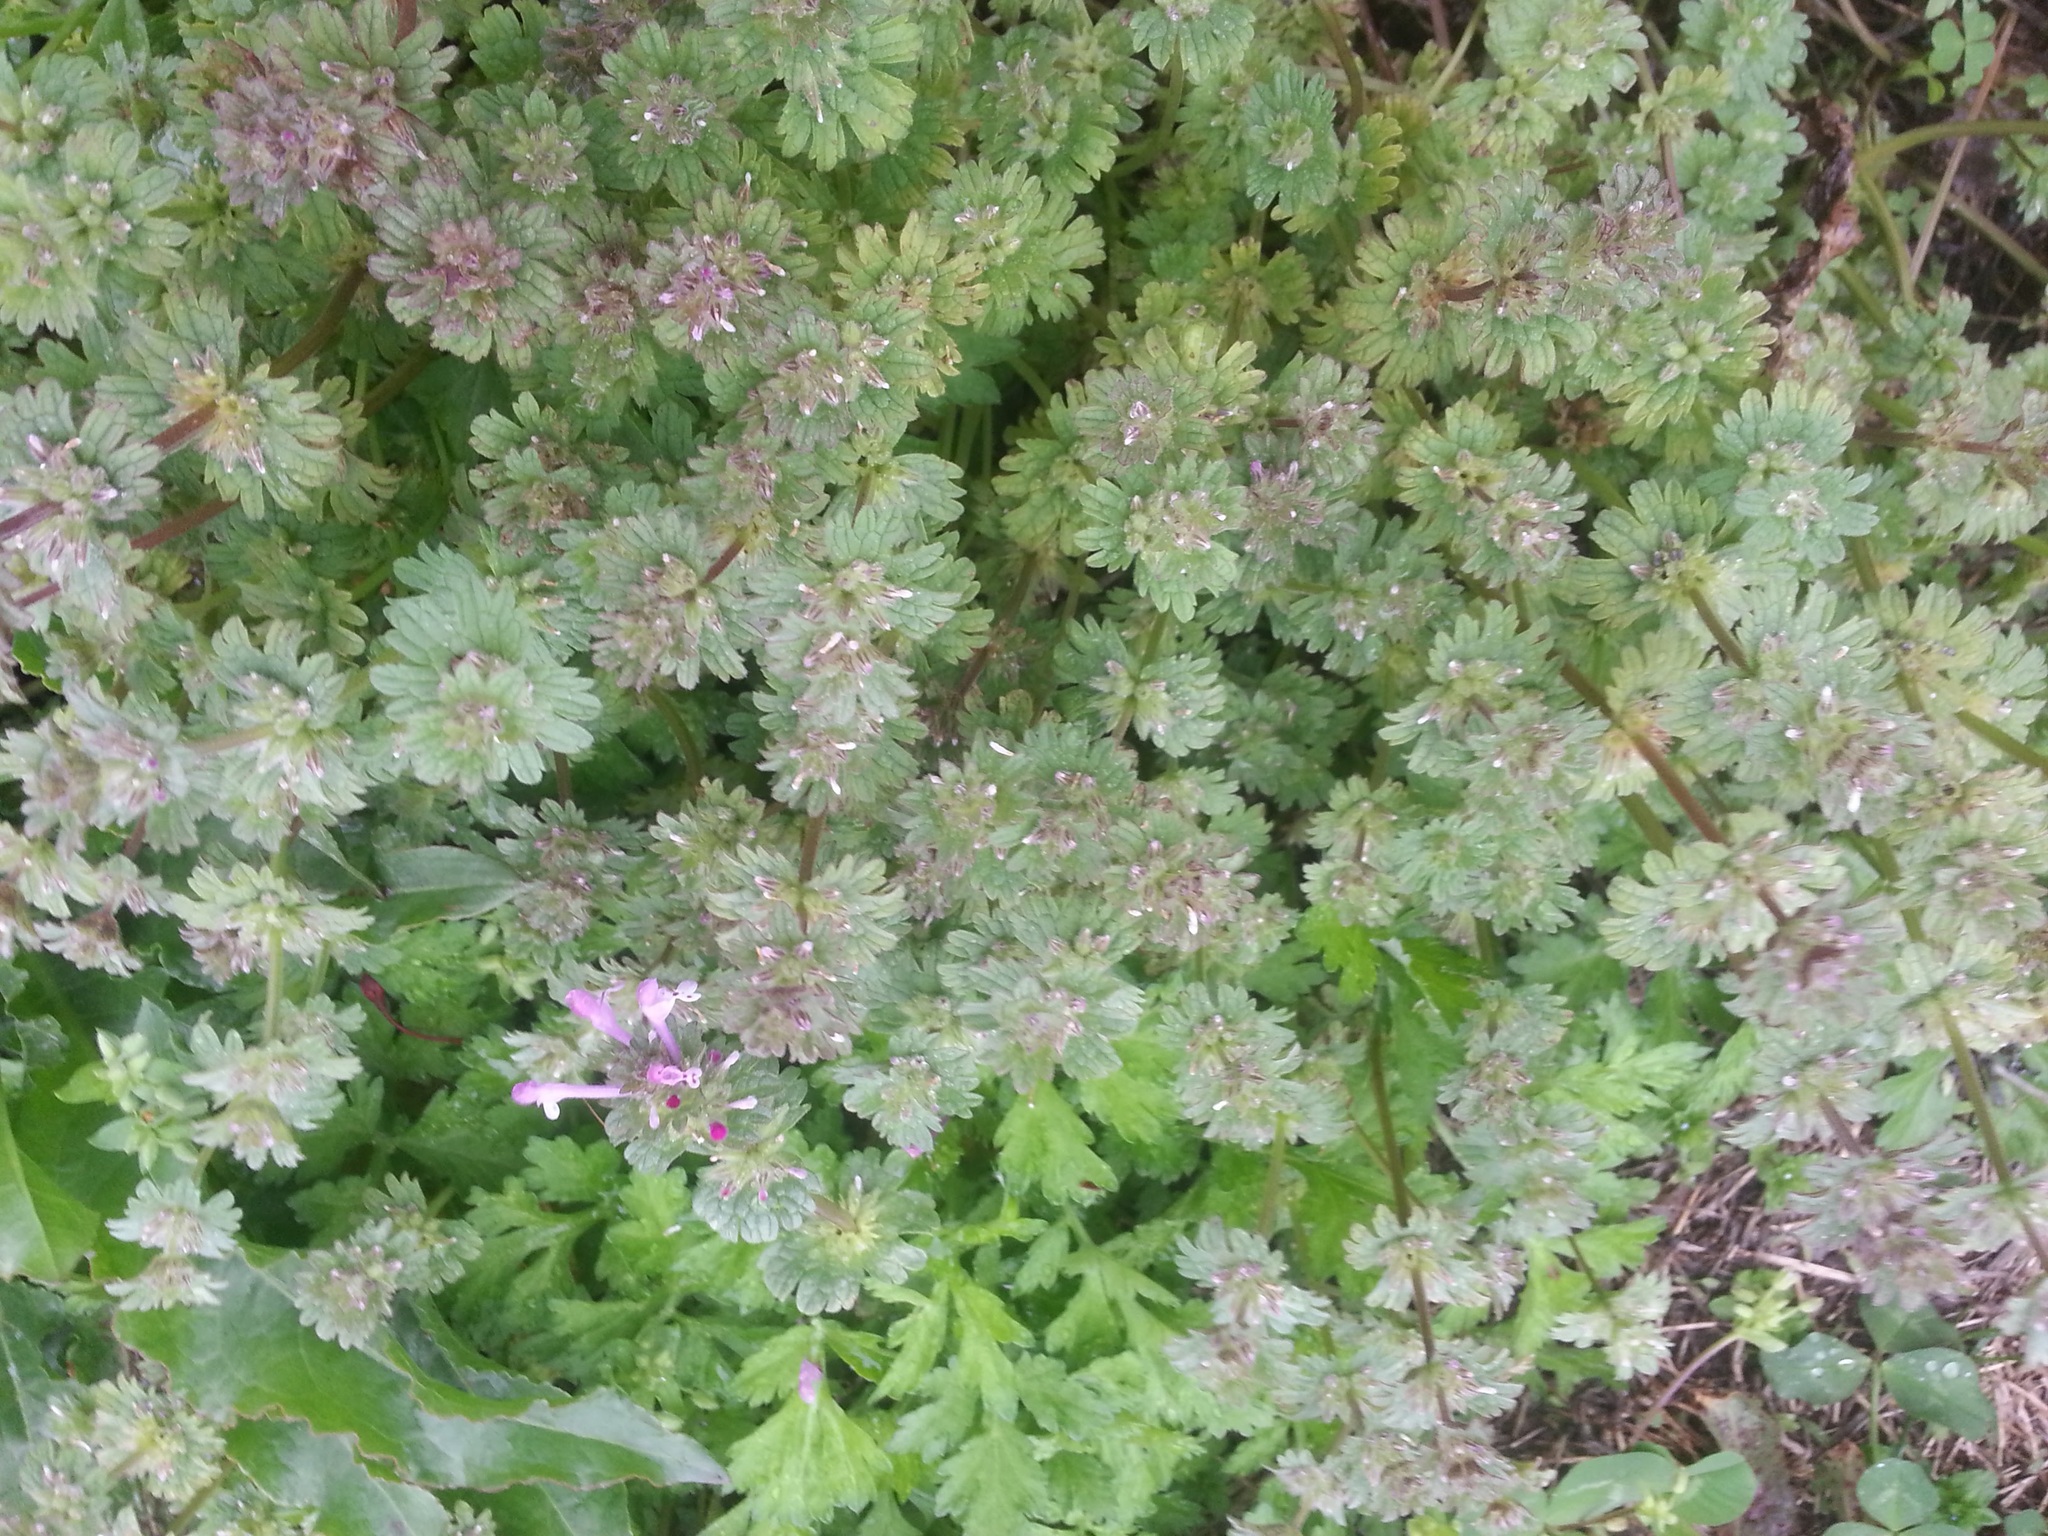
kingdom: Plantae
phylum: Tracheophyta
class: Magnoliopsida
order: Lamiales
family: Lamiaceae
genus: Lamium
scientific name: Lamium amplexicaule
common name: Henbit dead-nettle
